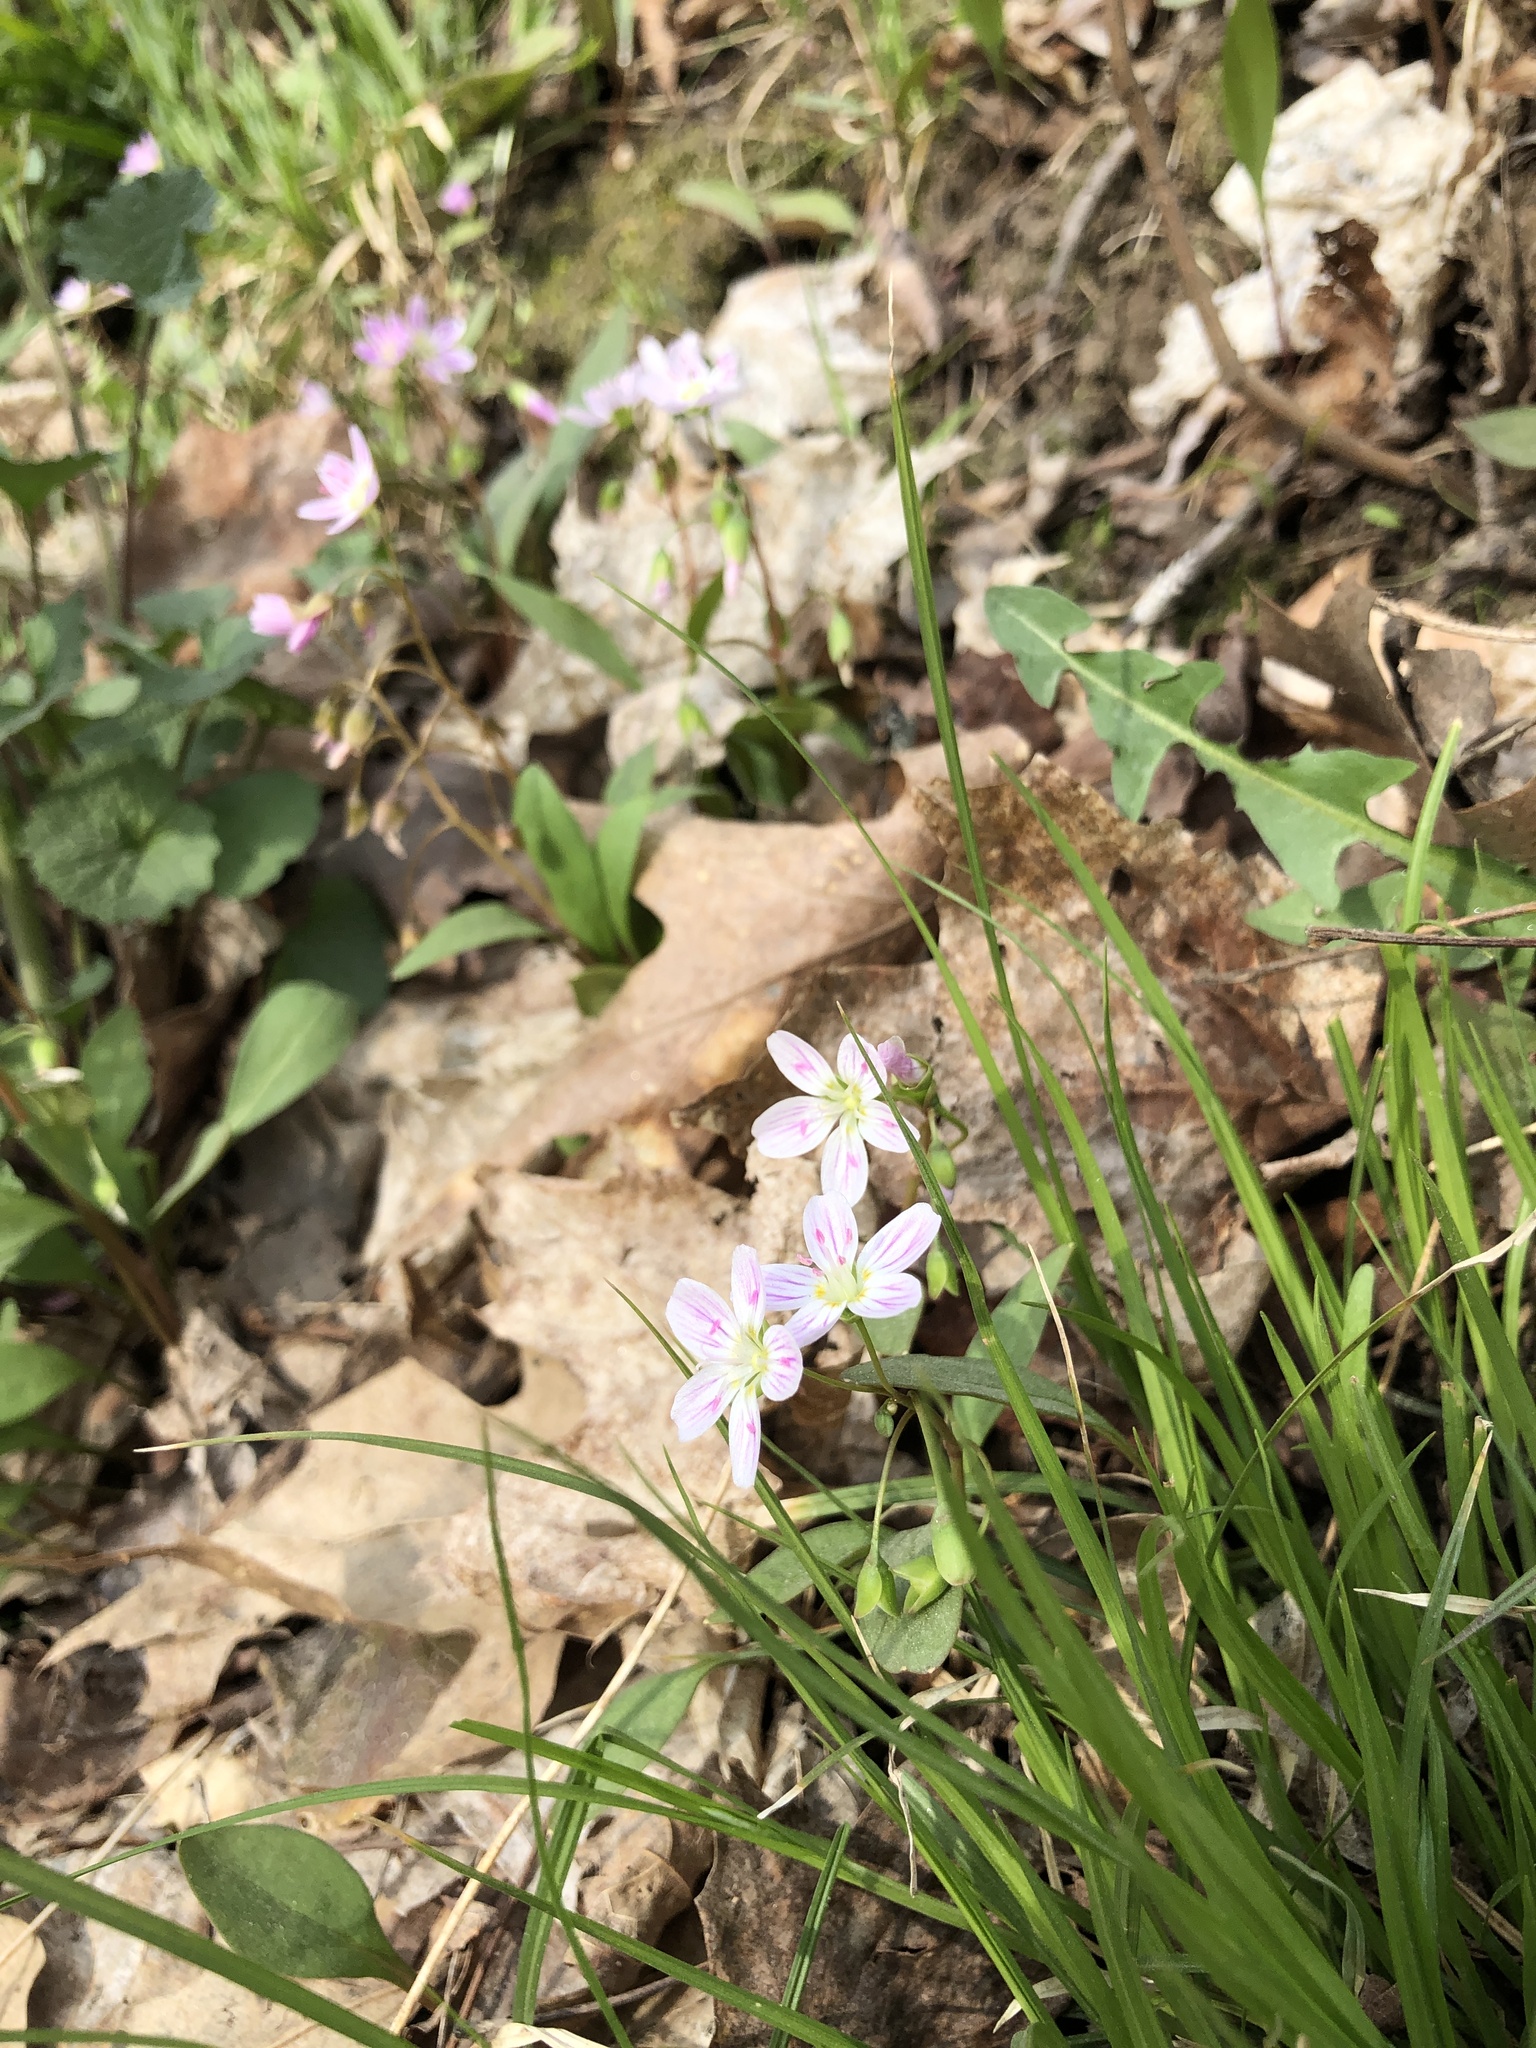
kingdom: Plantae
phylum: Tracheophyta
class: Magnoliopsida
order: Caryophyllales
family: Montiaceae
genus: Claytonia
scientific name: Claytonia caroliniana
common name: Carolina spring beauty
